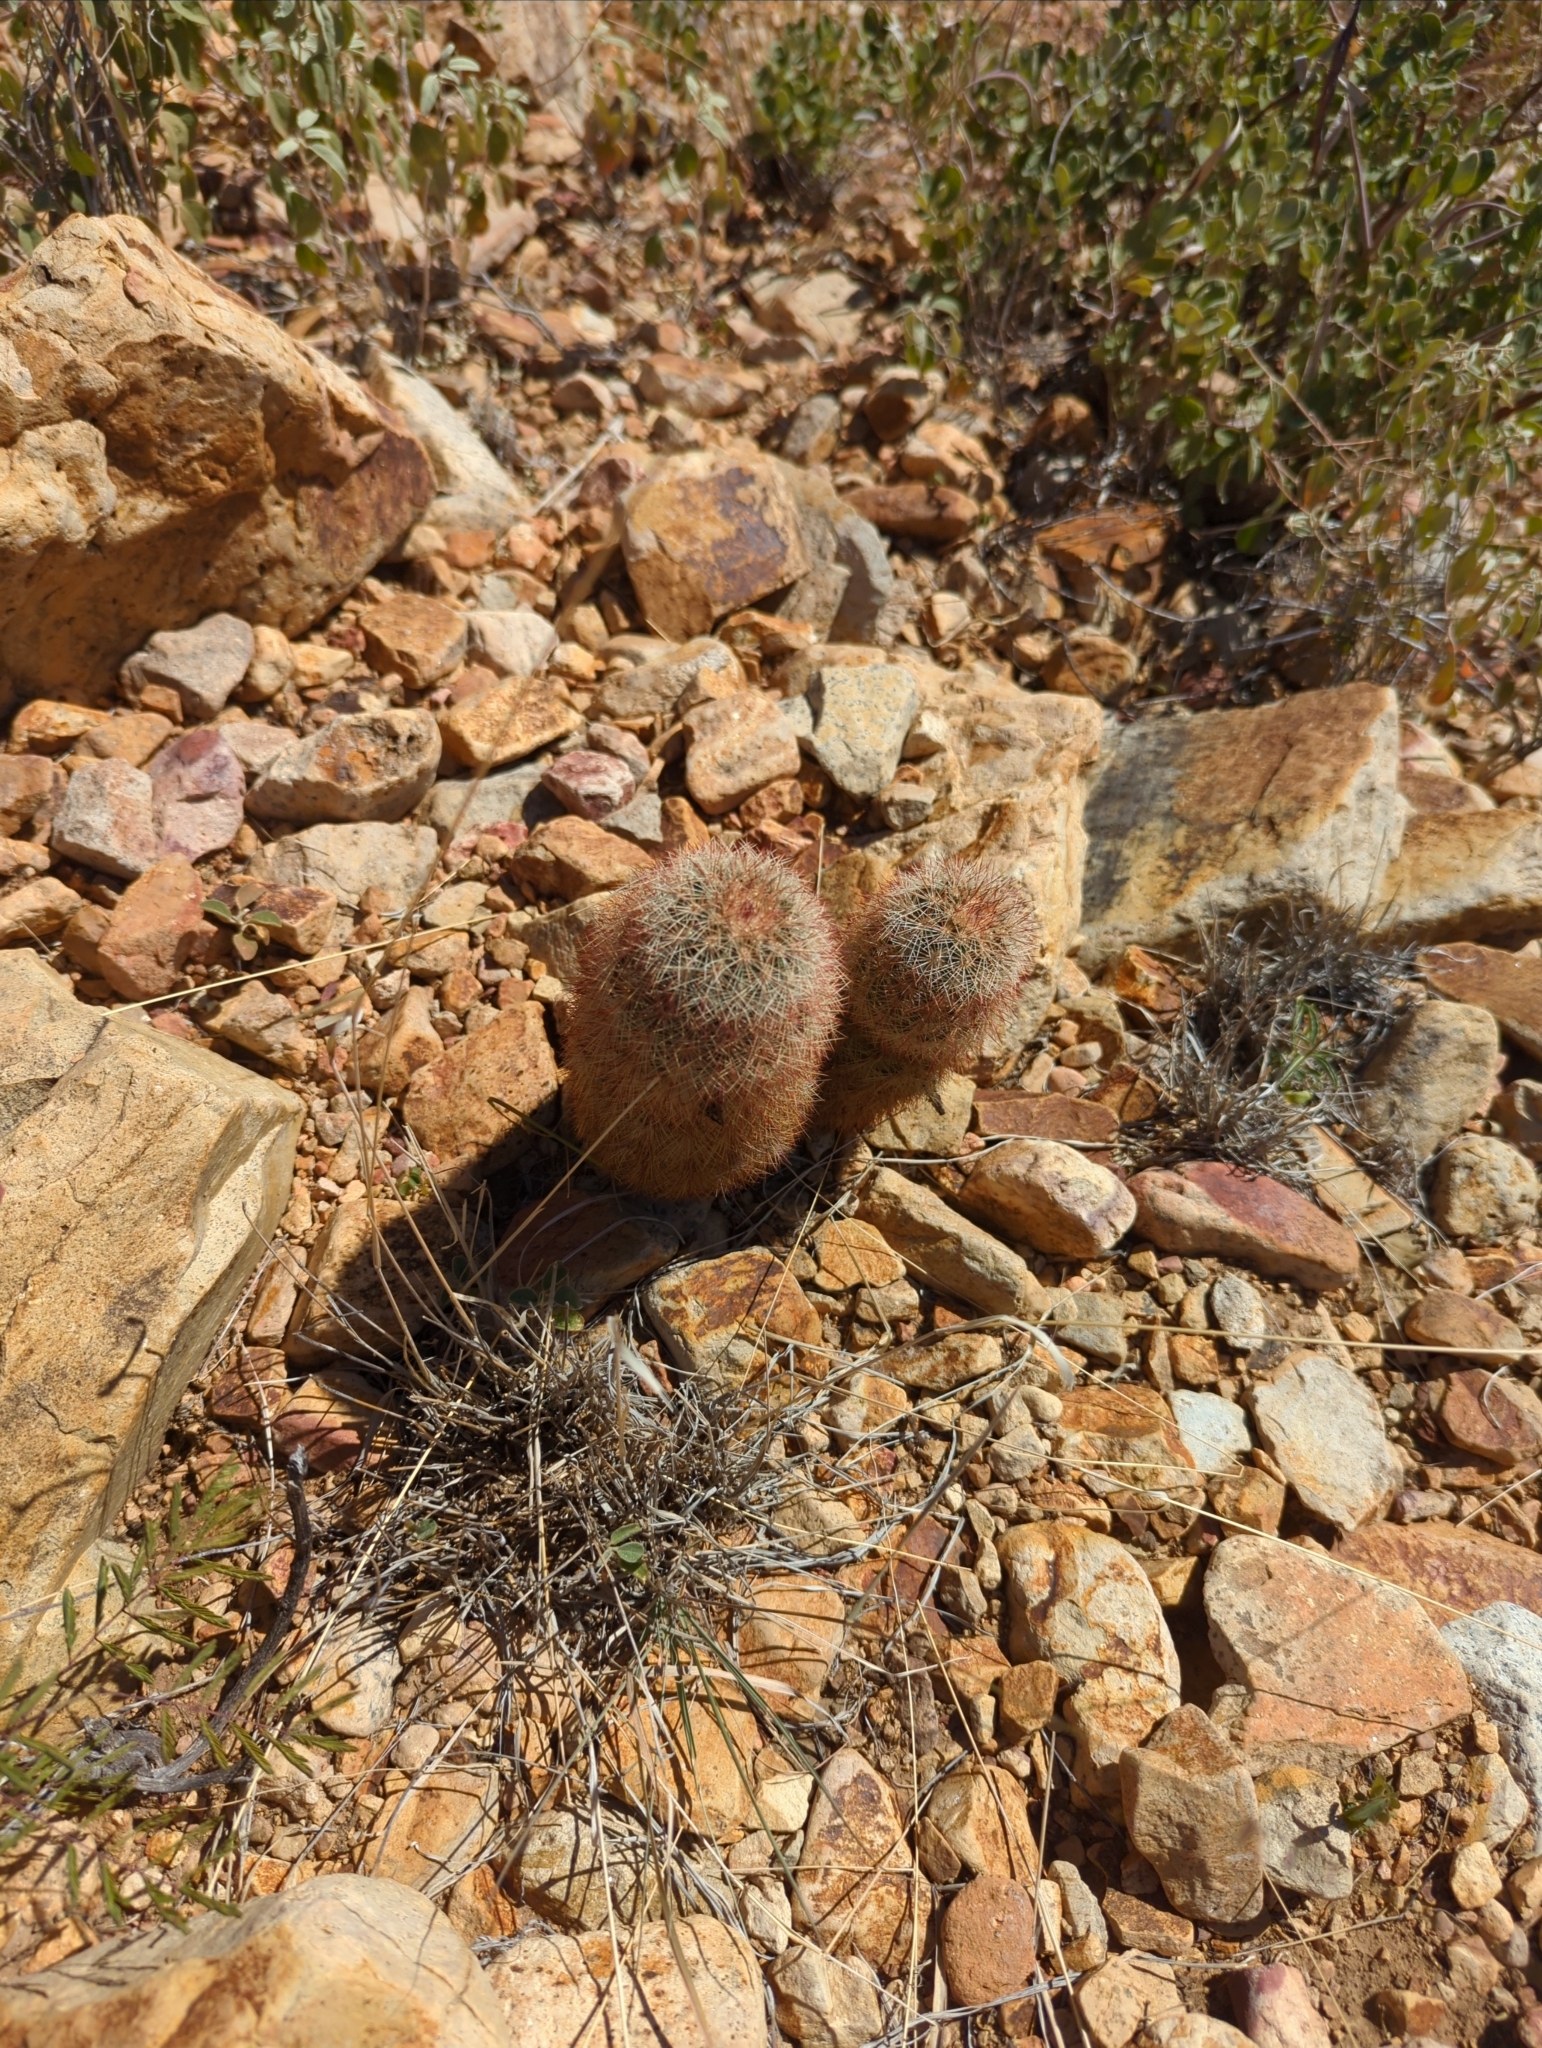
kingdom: Plantae
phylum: Tracheophyta
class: Magnoliopsida
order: Caryophyllales
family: Cactaceae
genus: Echinocereus
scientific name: Echinocereus russanthus
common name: Brownspine hedgehog cactus
